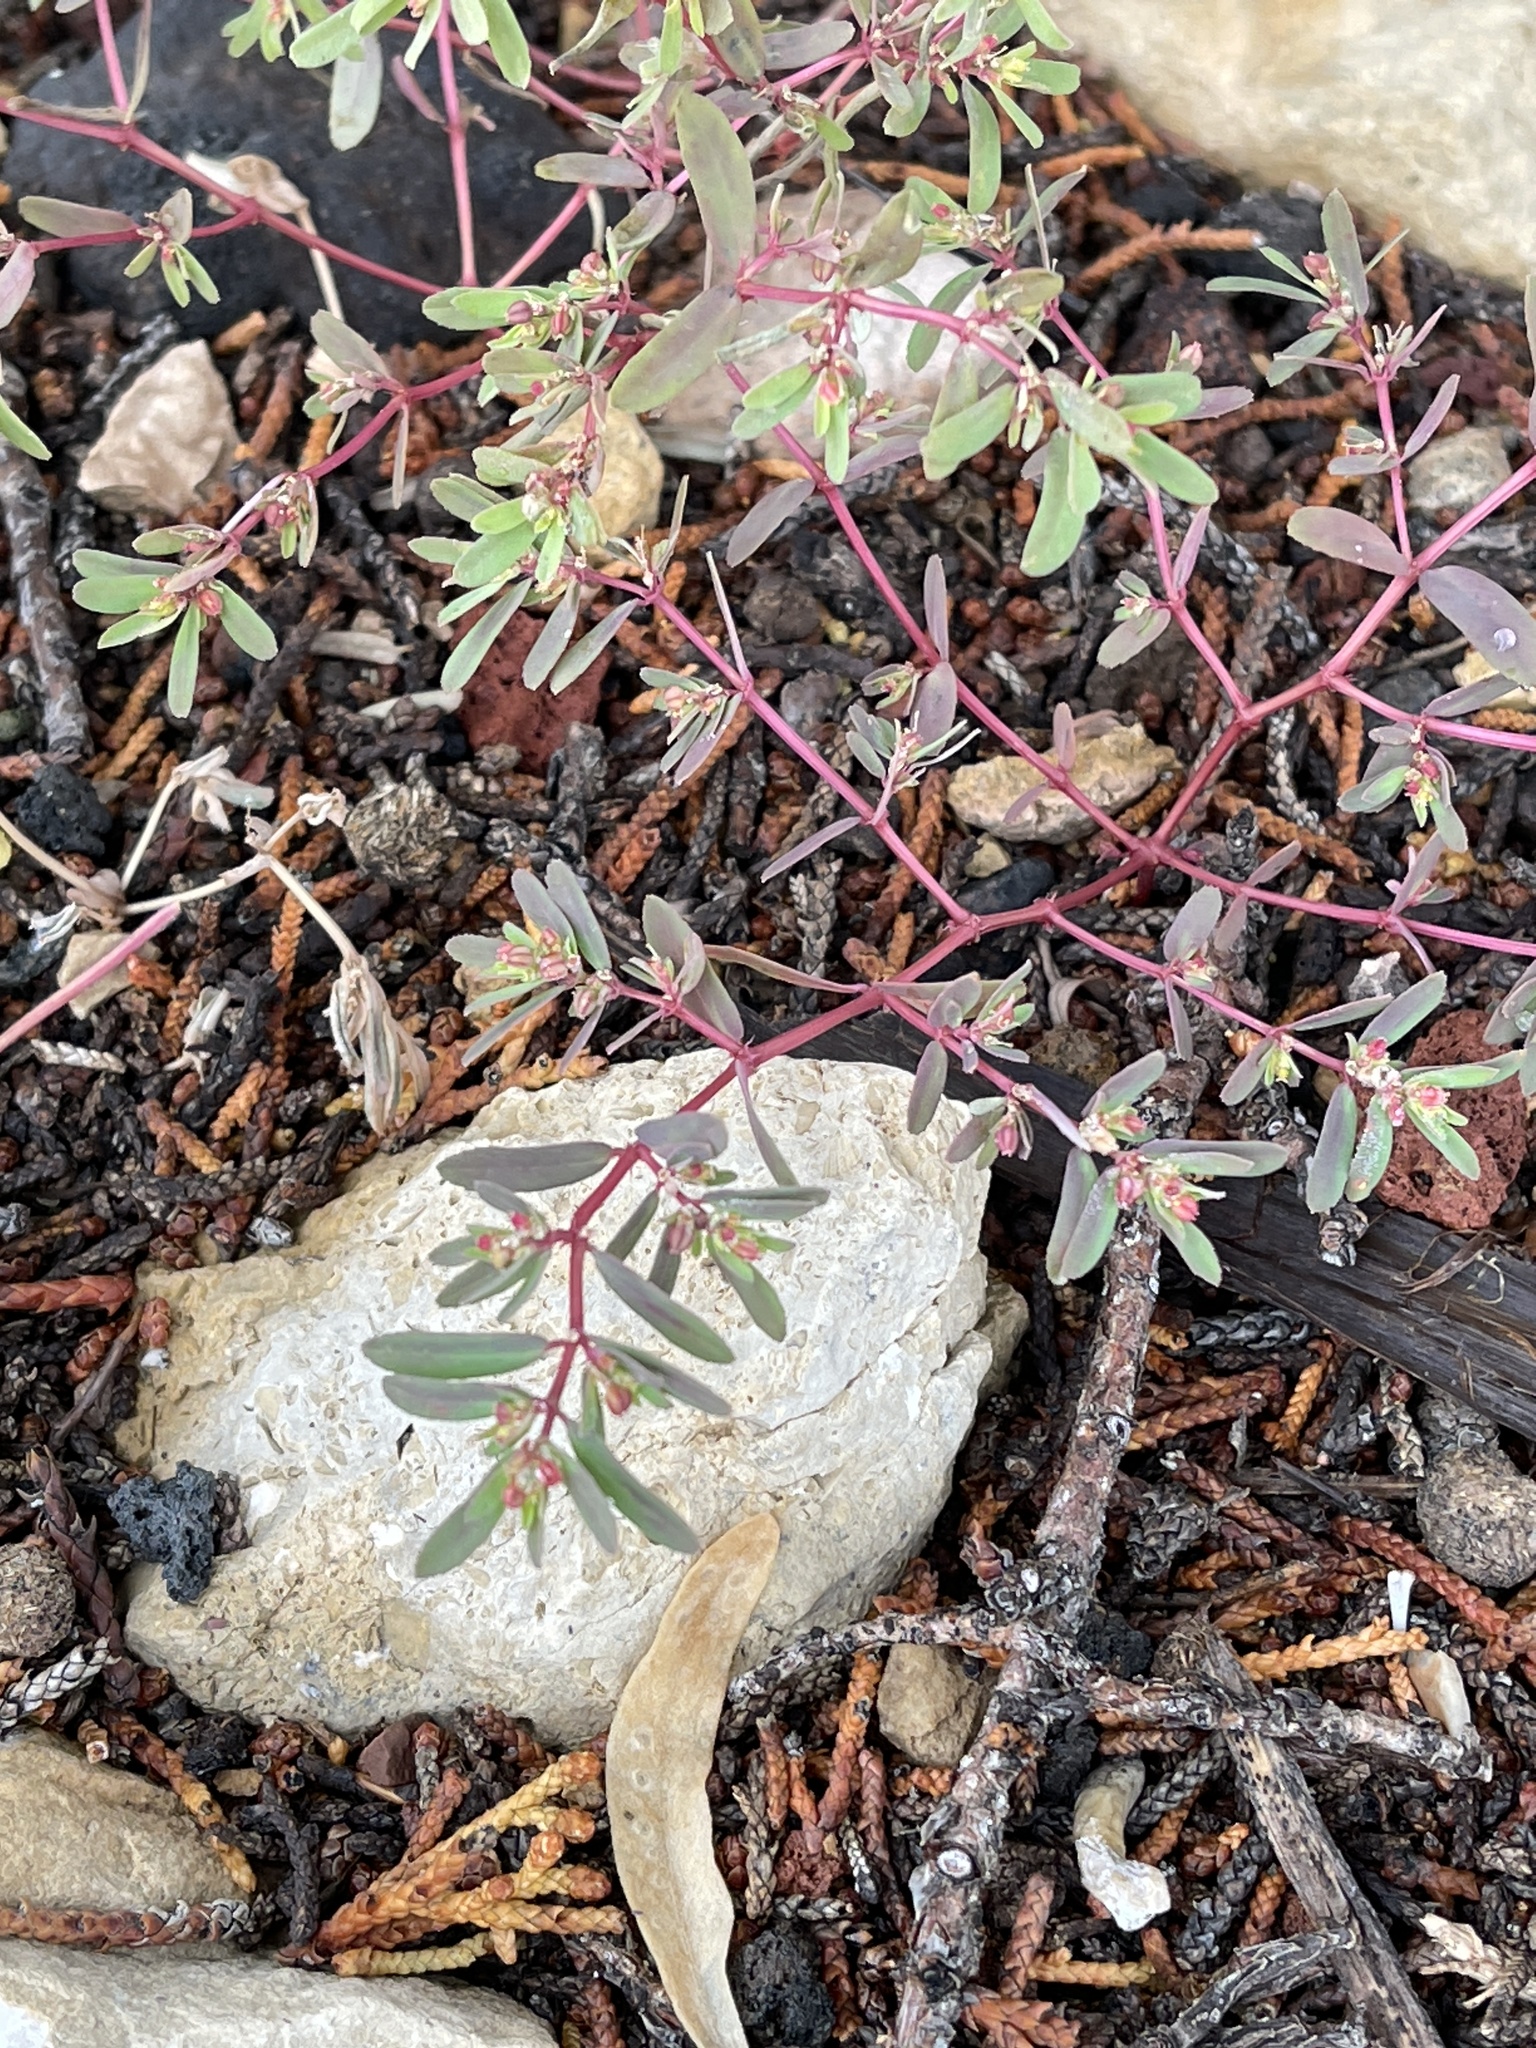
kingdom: Plantae
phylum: Tracheophyta
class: Magnoliopsida
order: Malpighiales
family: Euphorbiaceae
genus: Euphorbia
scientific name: Euphorbia serpillifolia
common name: Thyme-leaf spurge
